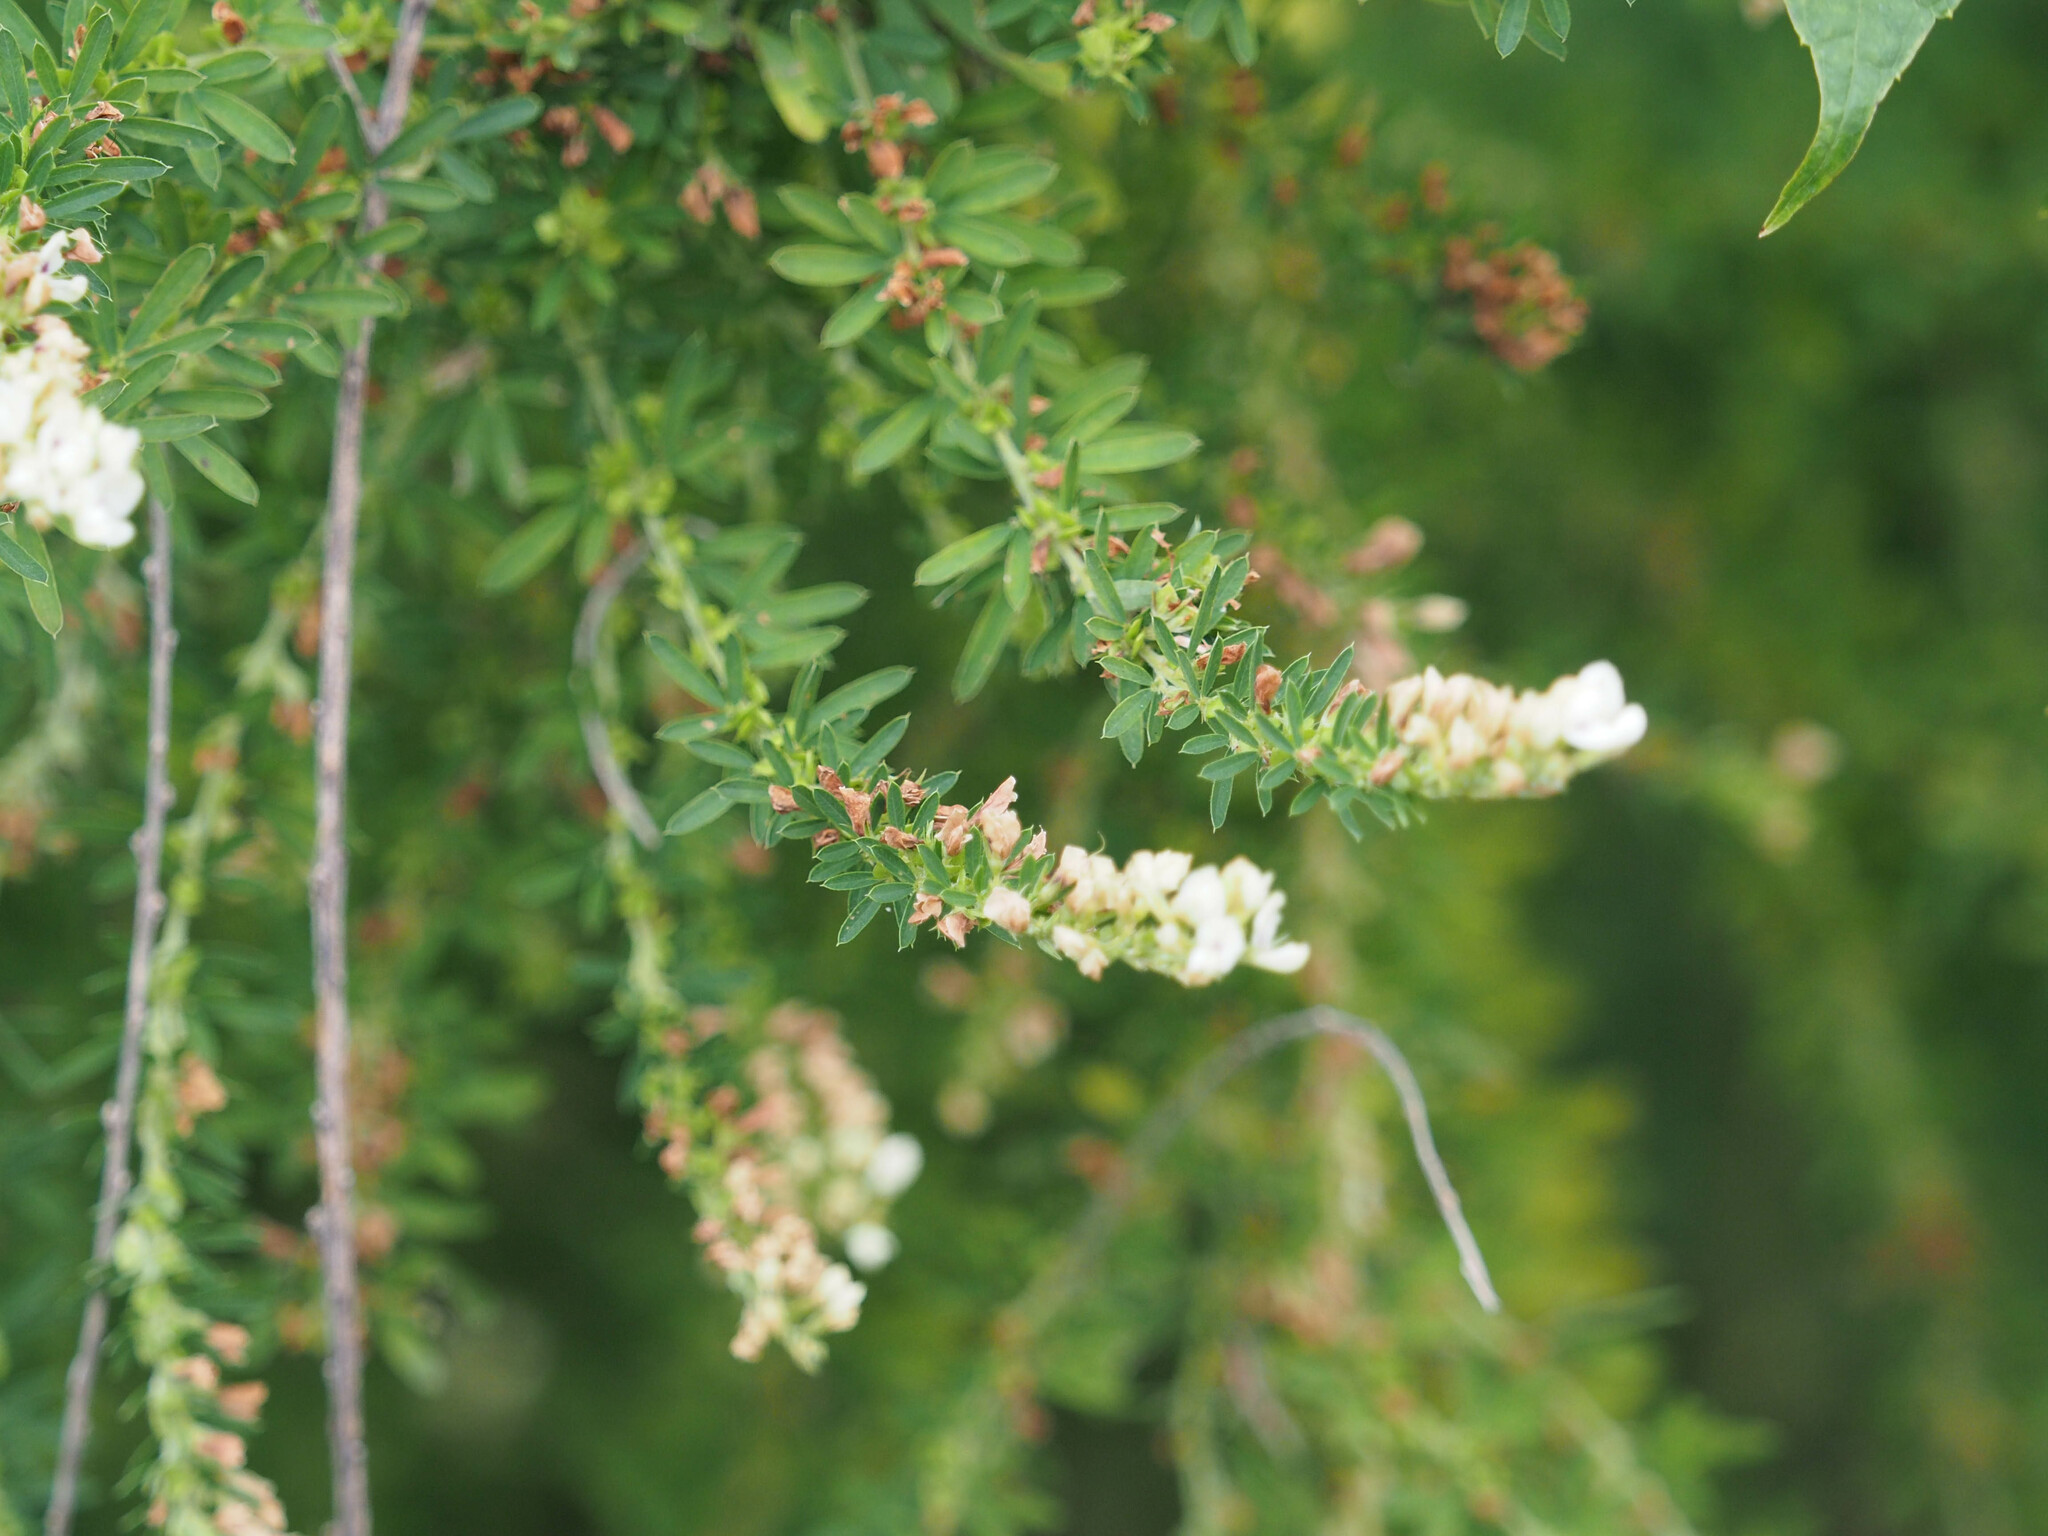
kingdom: Plantae
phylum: Tracheophyta
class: Magnoliopsida
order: Fabales
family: Fabaceae
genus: Lespedeza
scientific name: Lespedeza cuneata
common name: Chinese bush-clover
